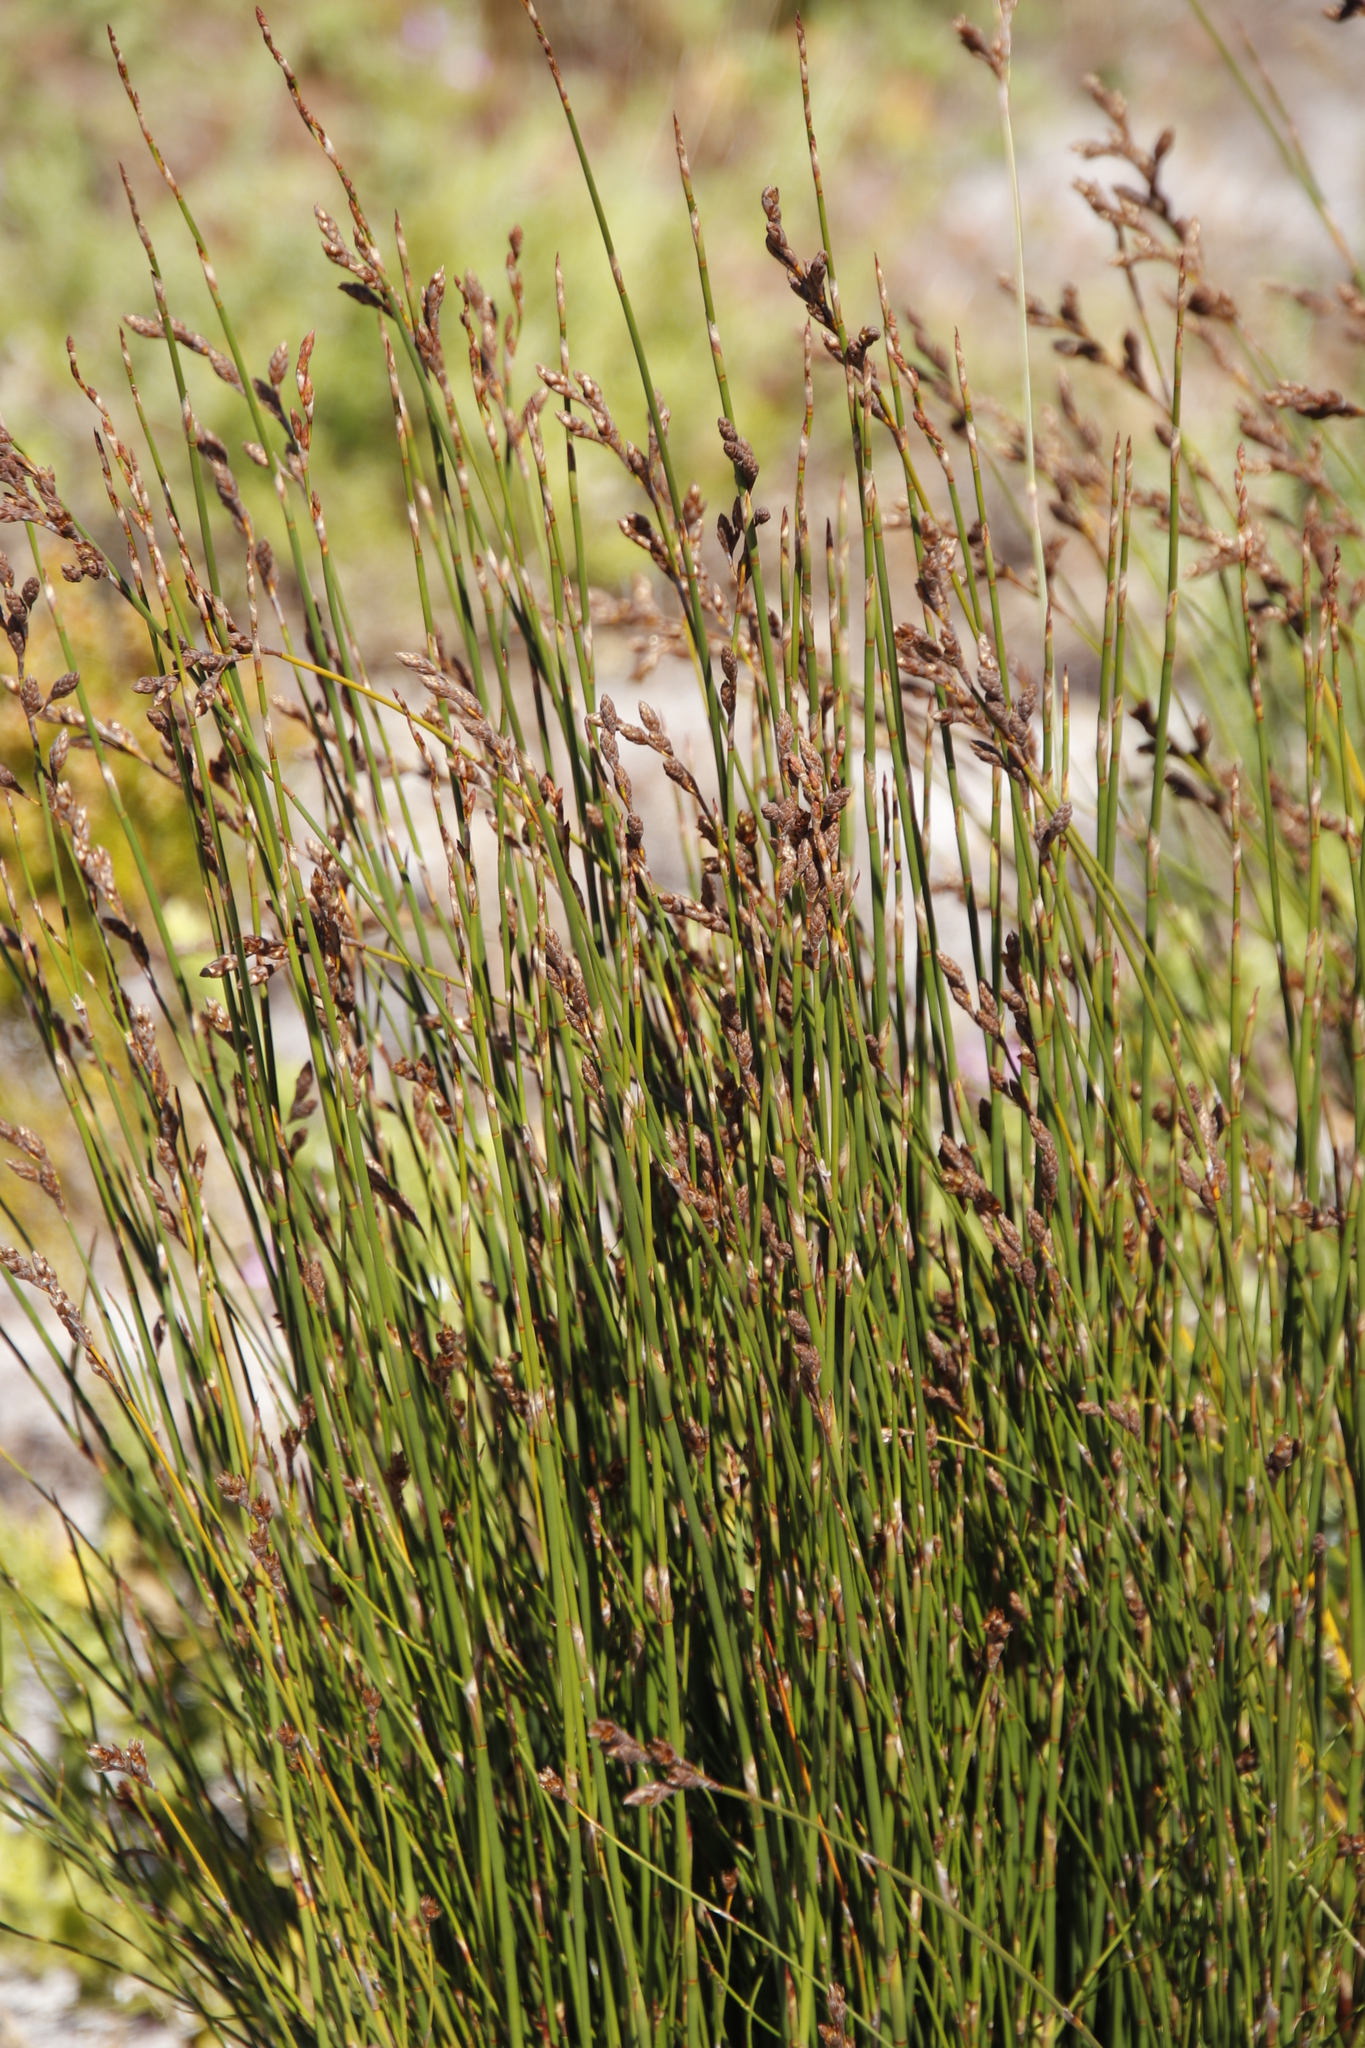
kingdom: Plantae
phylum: Tracheophyta
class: Liliopsida
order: Poales
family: Restionaceae
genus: Restio
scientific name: Restio bifurcus
